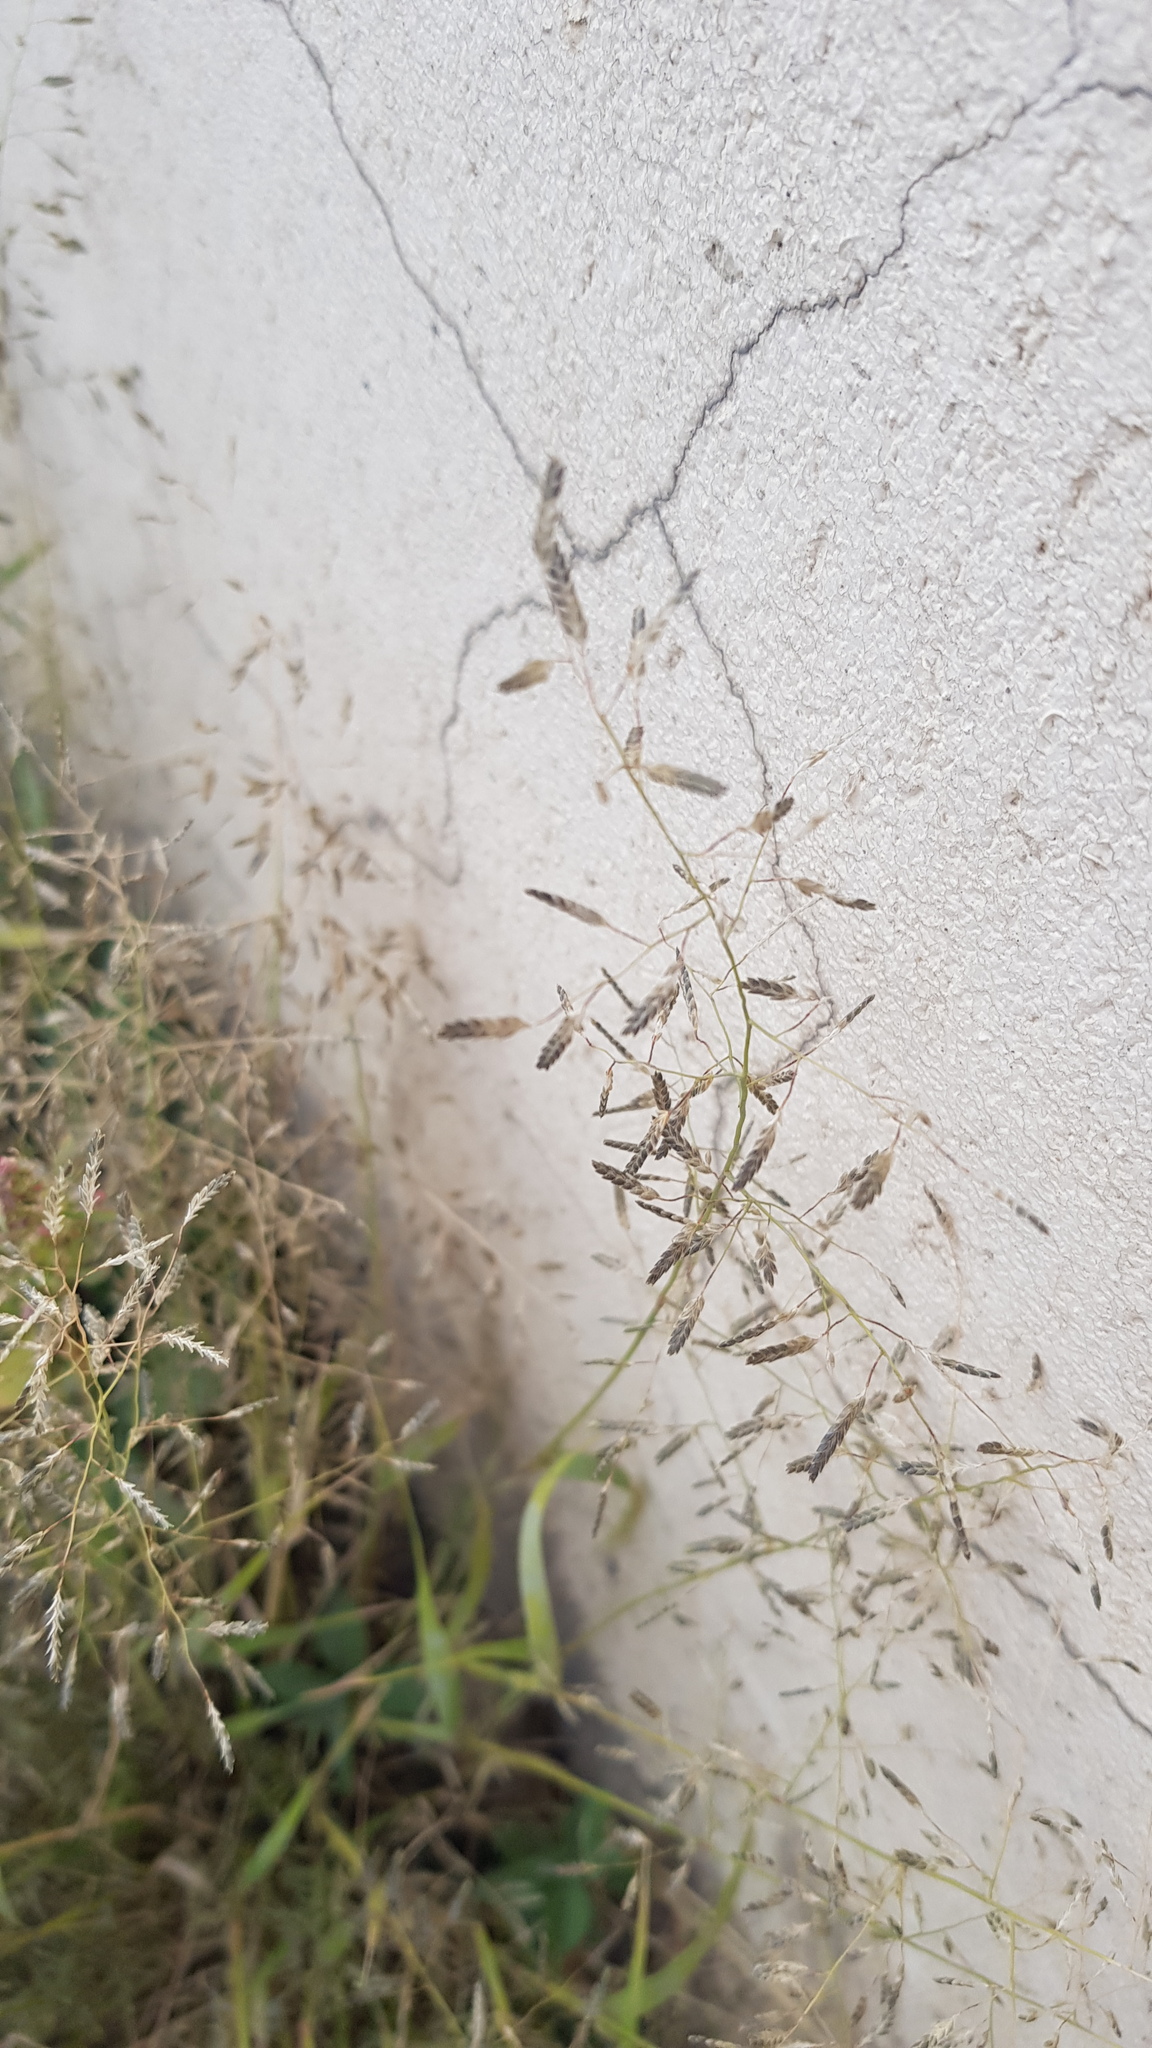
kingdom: Plantae
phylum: Tracheophyta
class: Liliopsida
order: Poales
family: Poaceae
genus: Eragrostis
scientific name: Eragrostis minor
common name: Small love-grass
